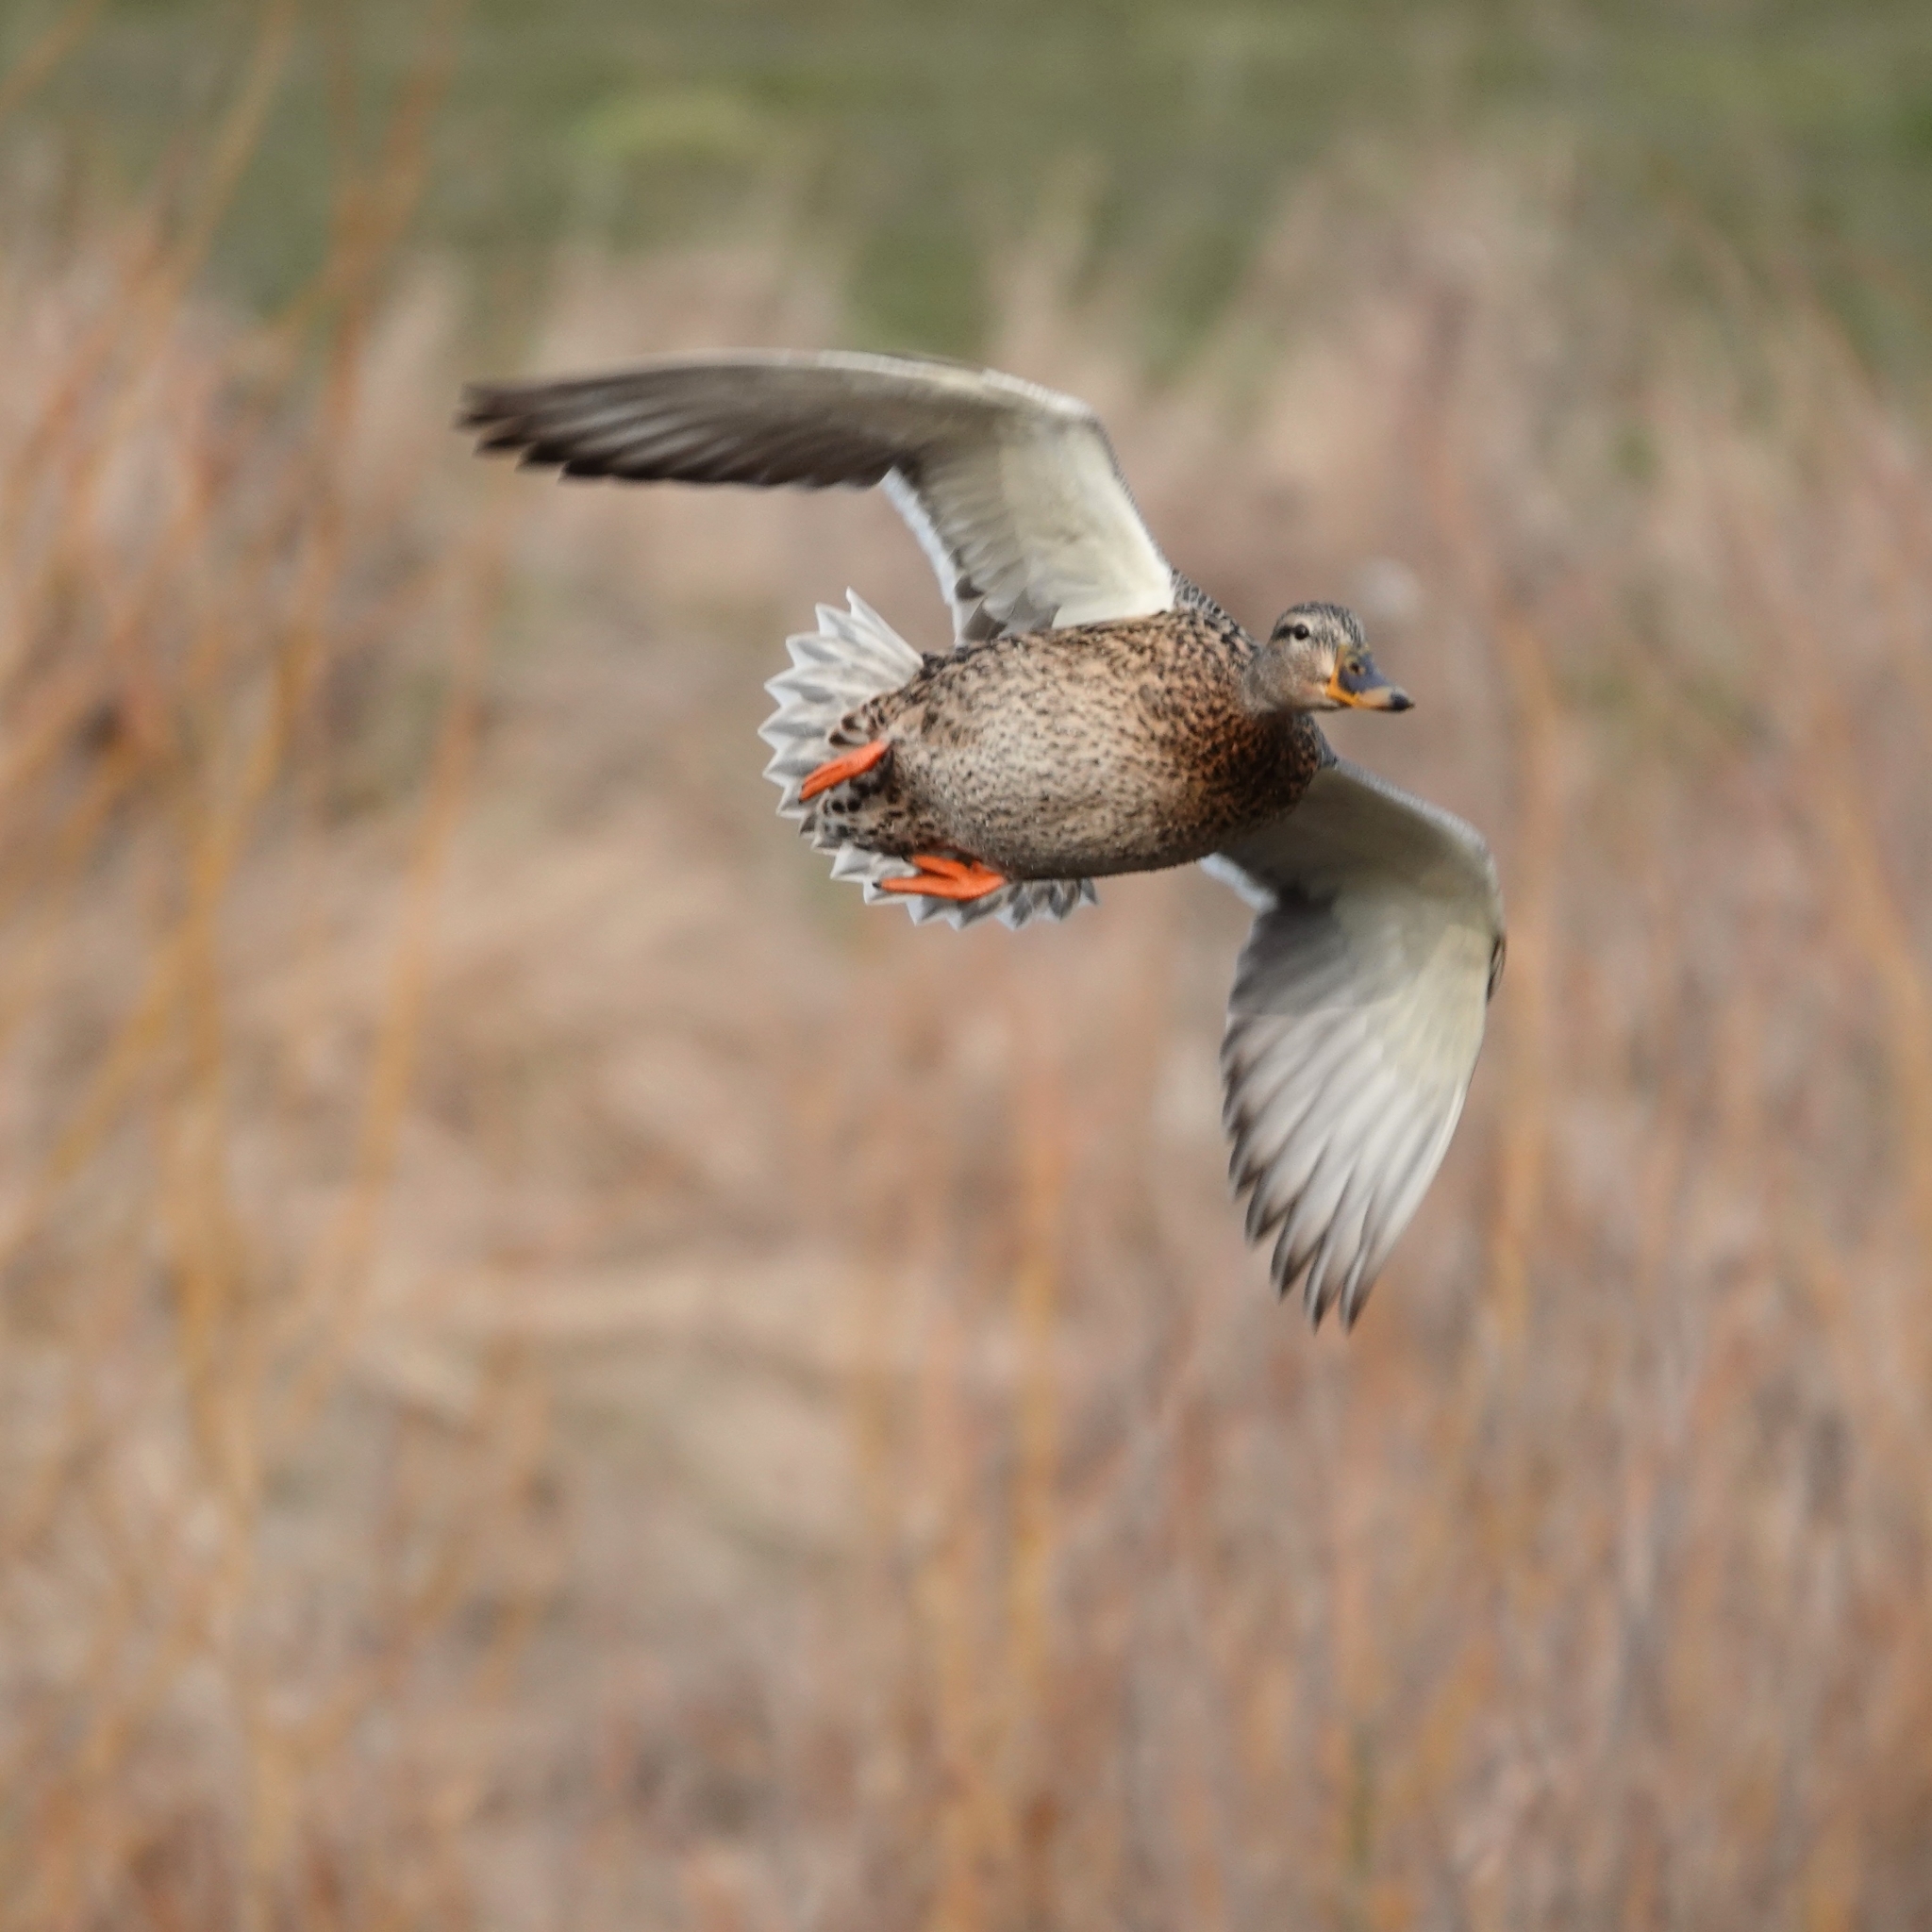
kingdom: Animalia
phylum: Chordata
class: Aves
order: Anseriformes
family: Anatidae
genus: Anas
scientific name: Anas platyrhynchos
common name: Mallard
